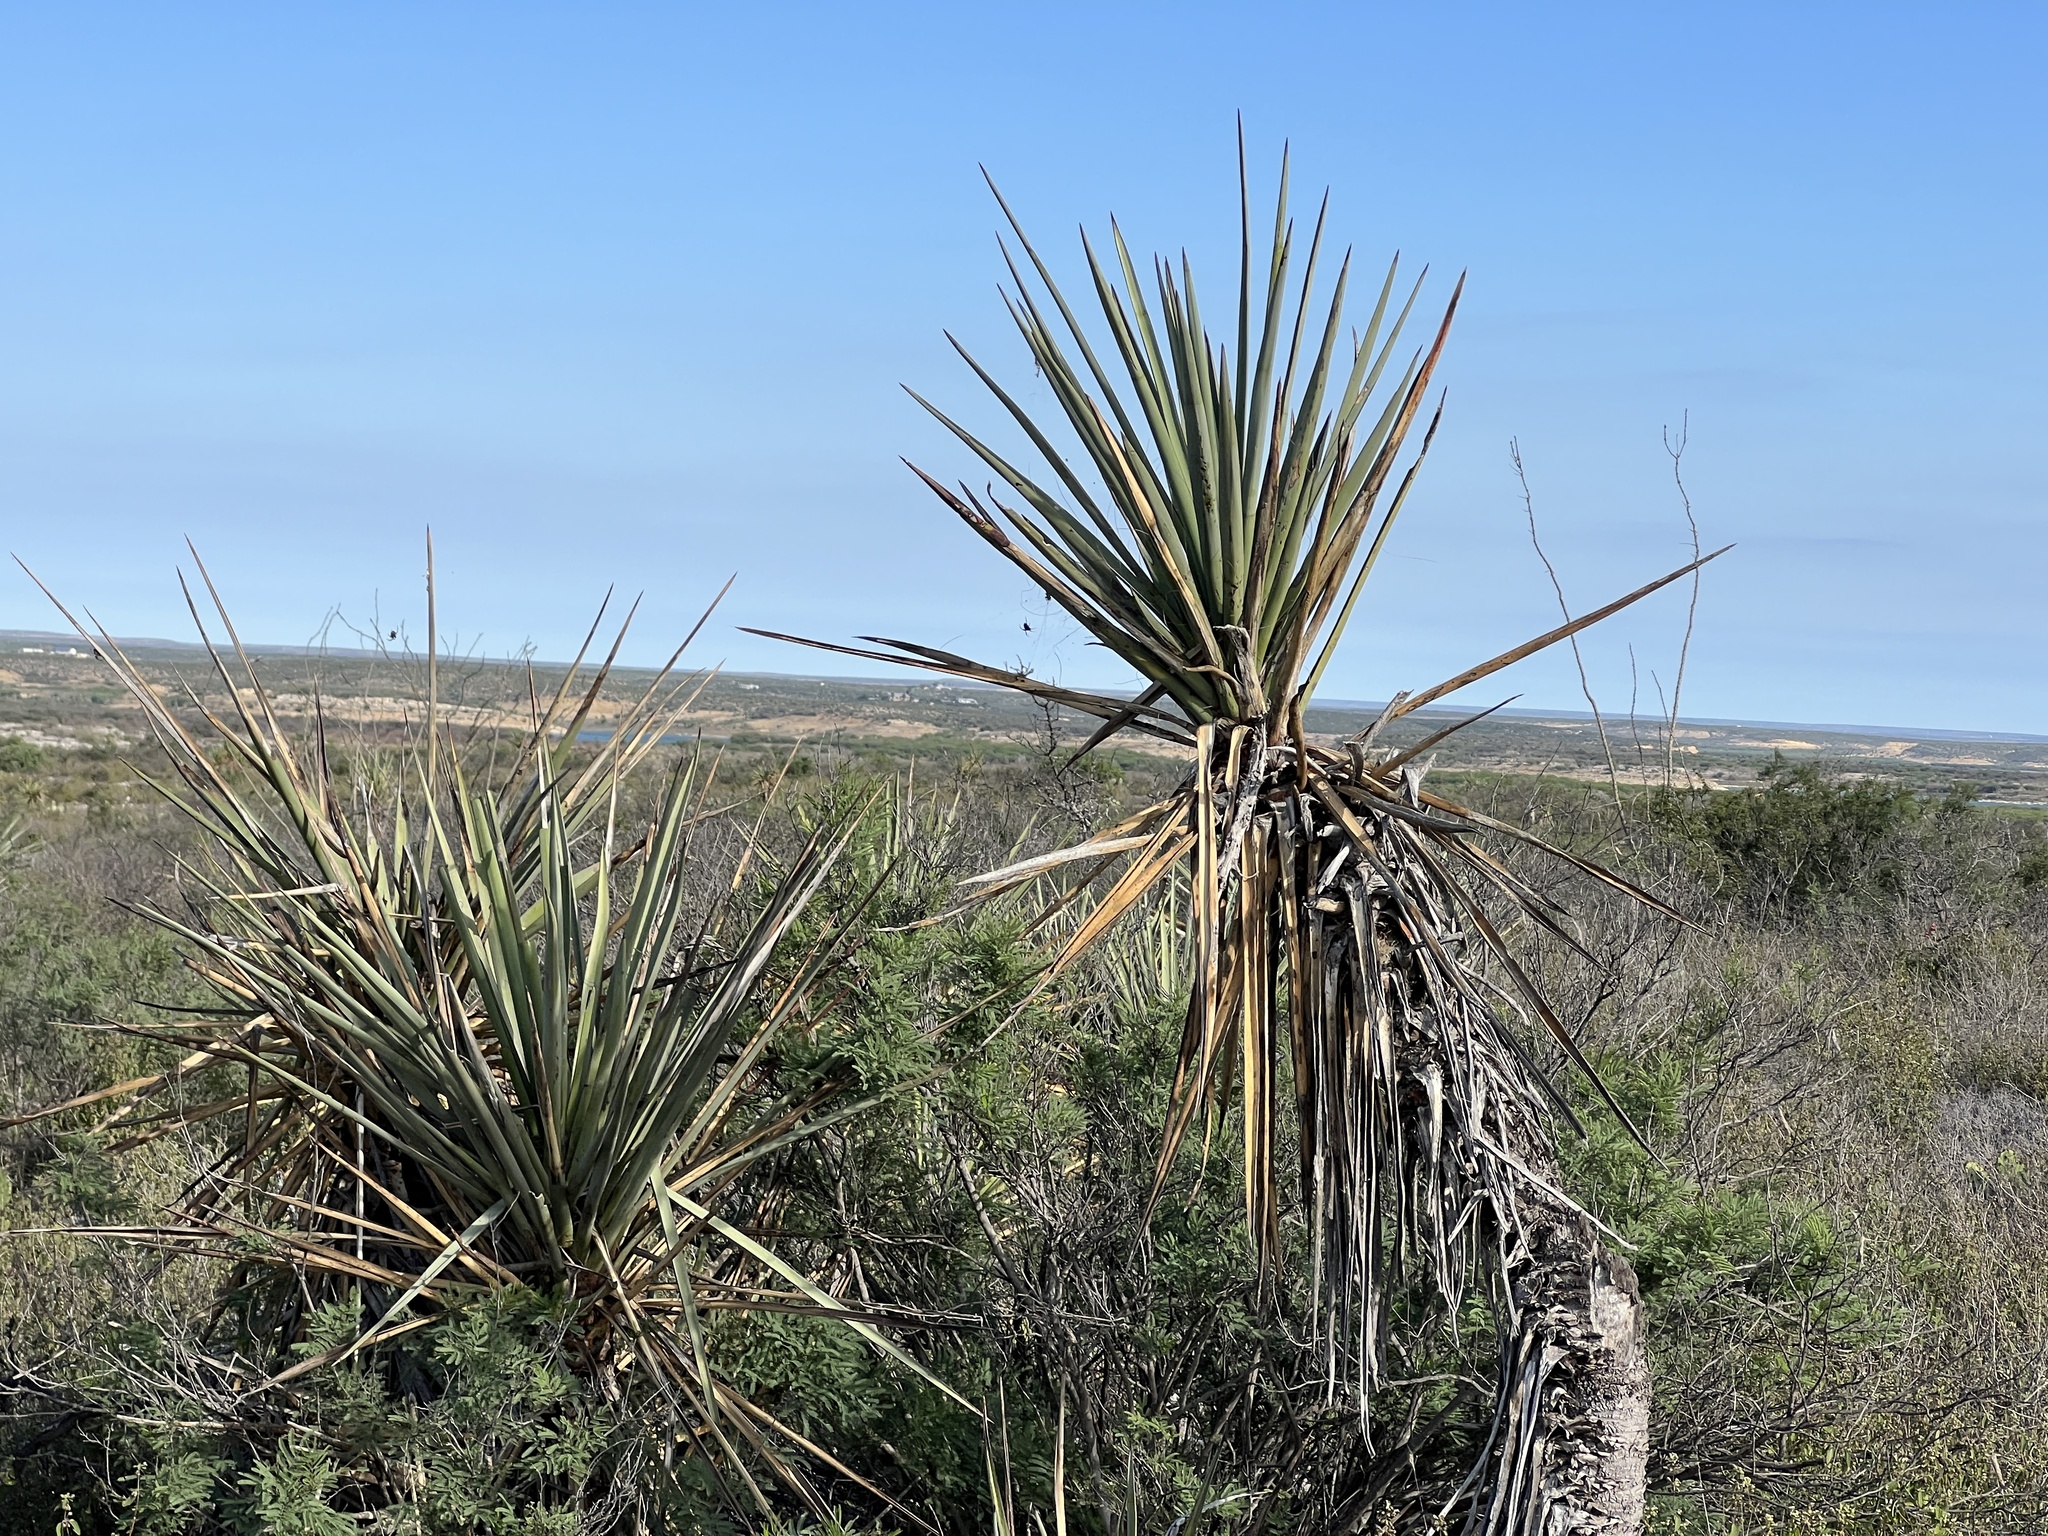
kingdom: Plantae
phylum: Tracheophyta
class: Liliopsida
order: Asparagales
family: Asparagaceae
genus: Yucca
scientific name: Yucca treculiana
